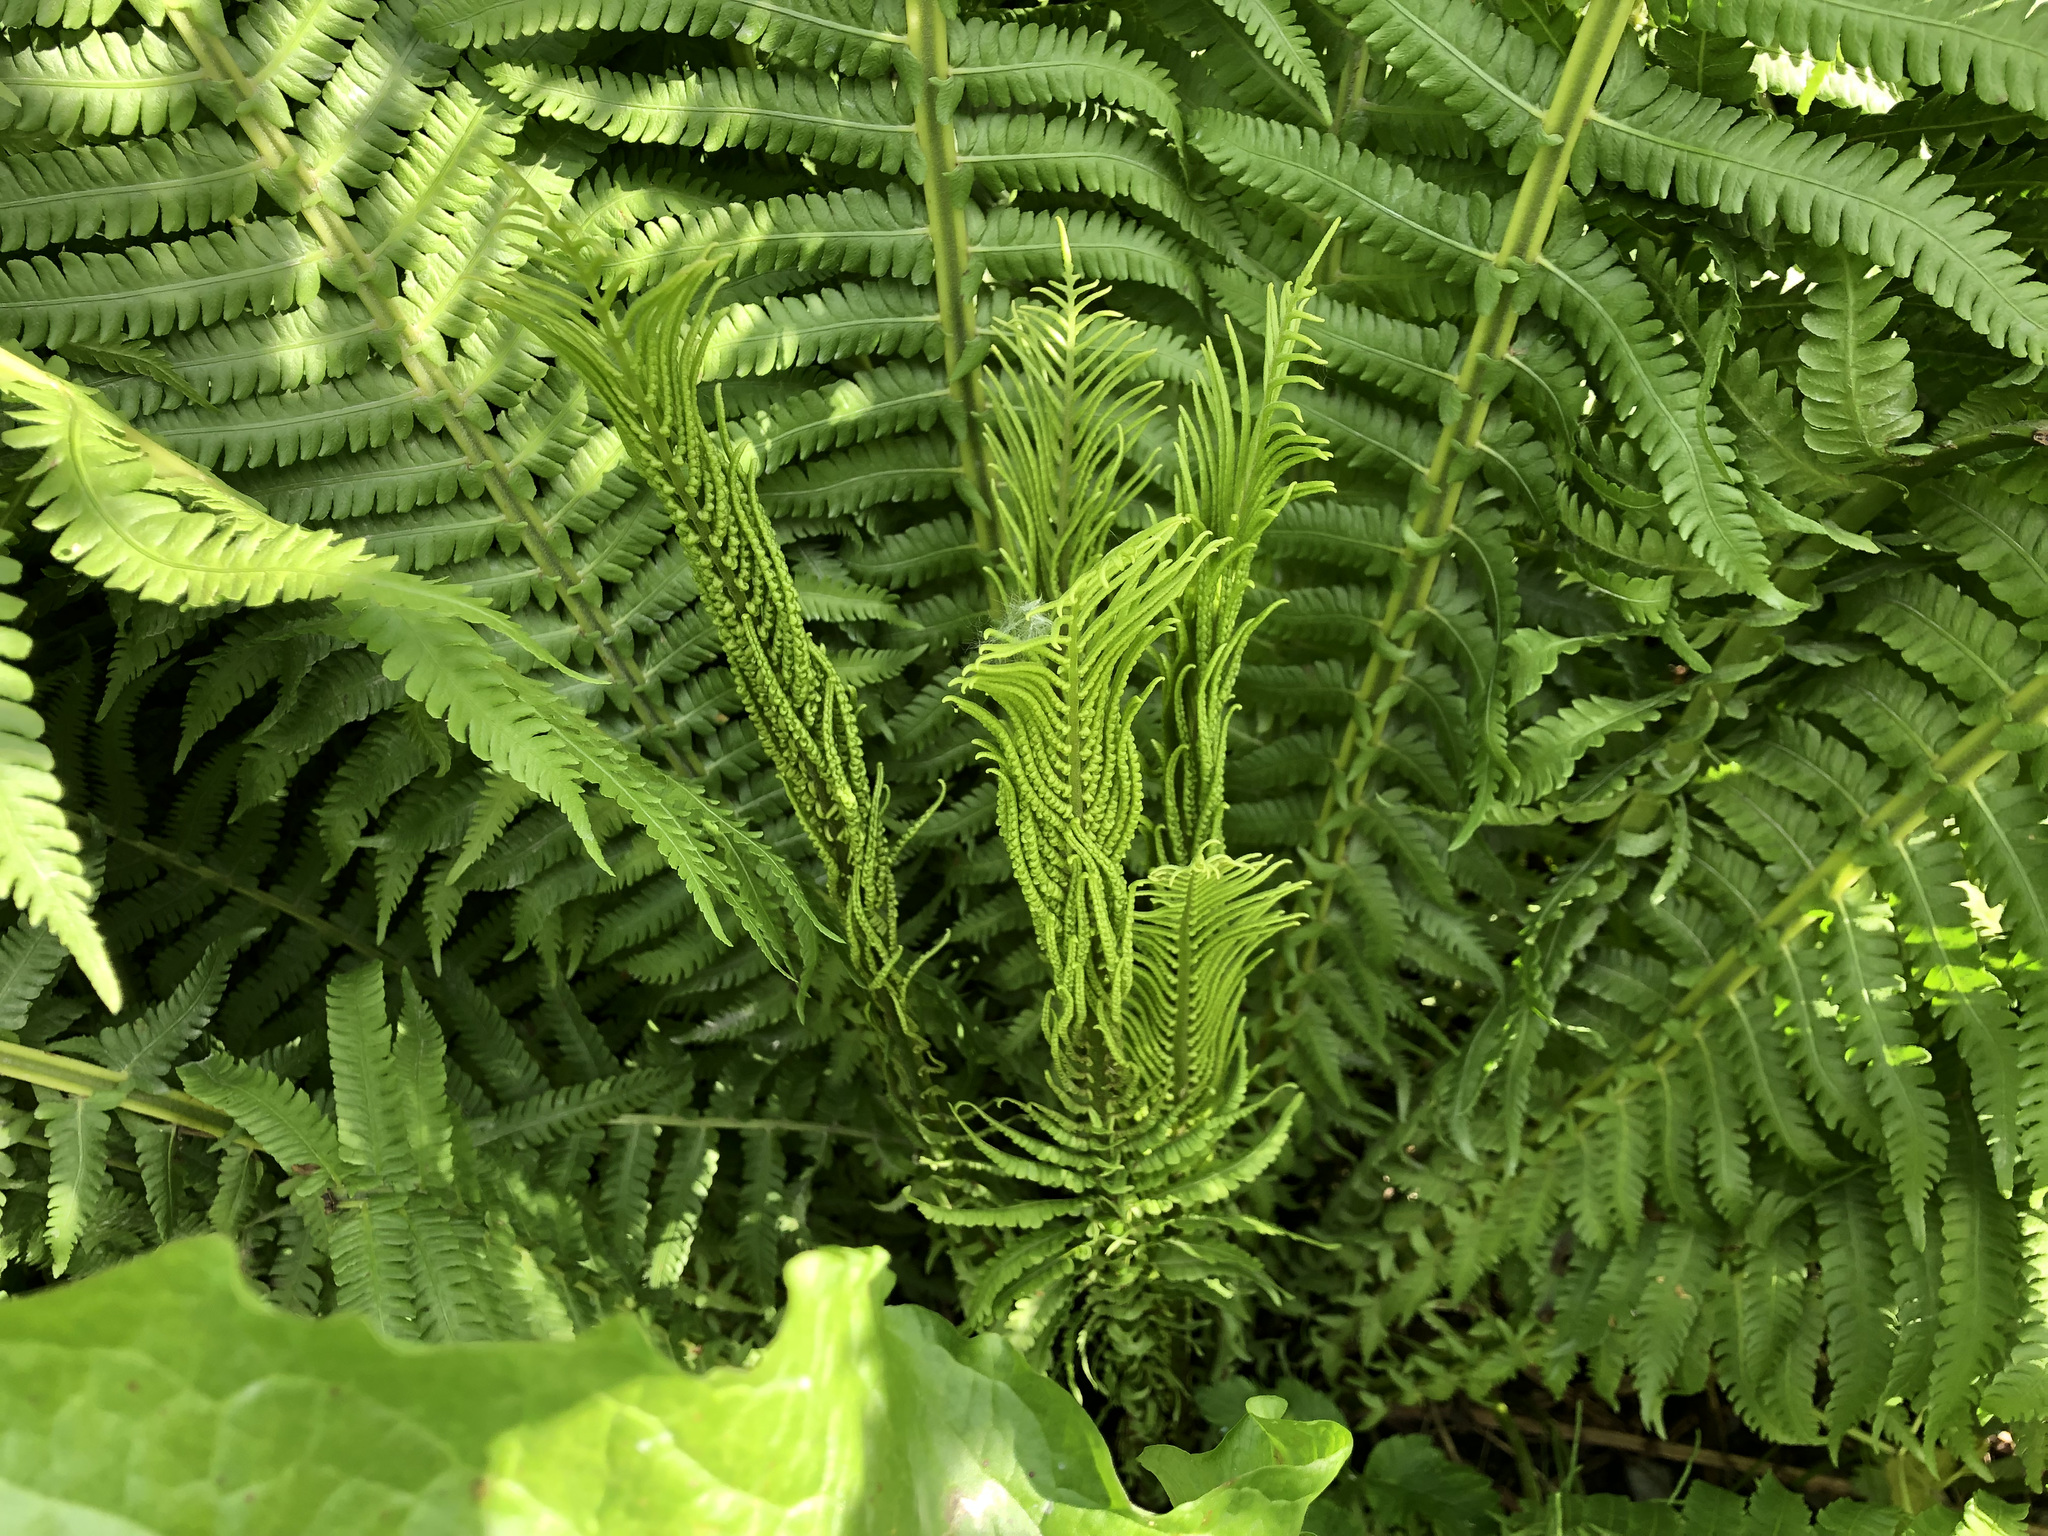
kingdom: Plantae
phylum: Tracheophyta
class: Polypodiopsida
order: Polypodiales
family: Onocleaceae
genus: Matteuccia
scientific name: Matteuccia struthiopteris
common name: Ostrich fern
